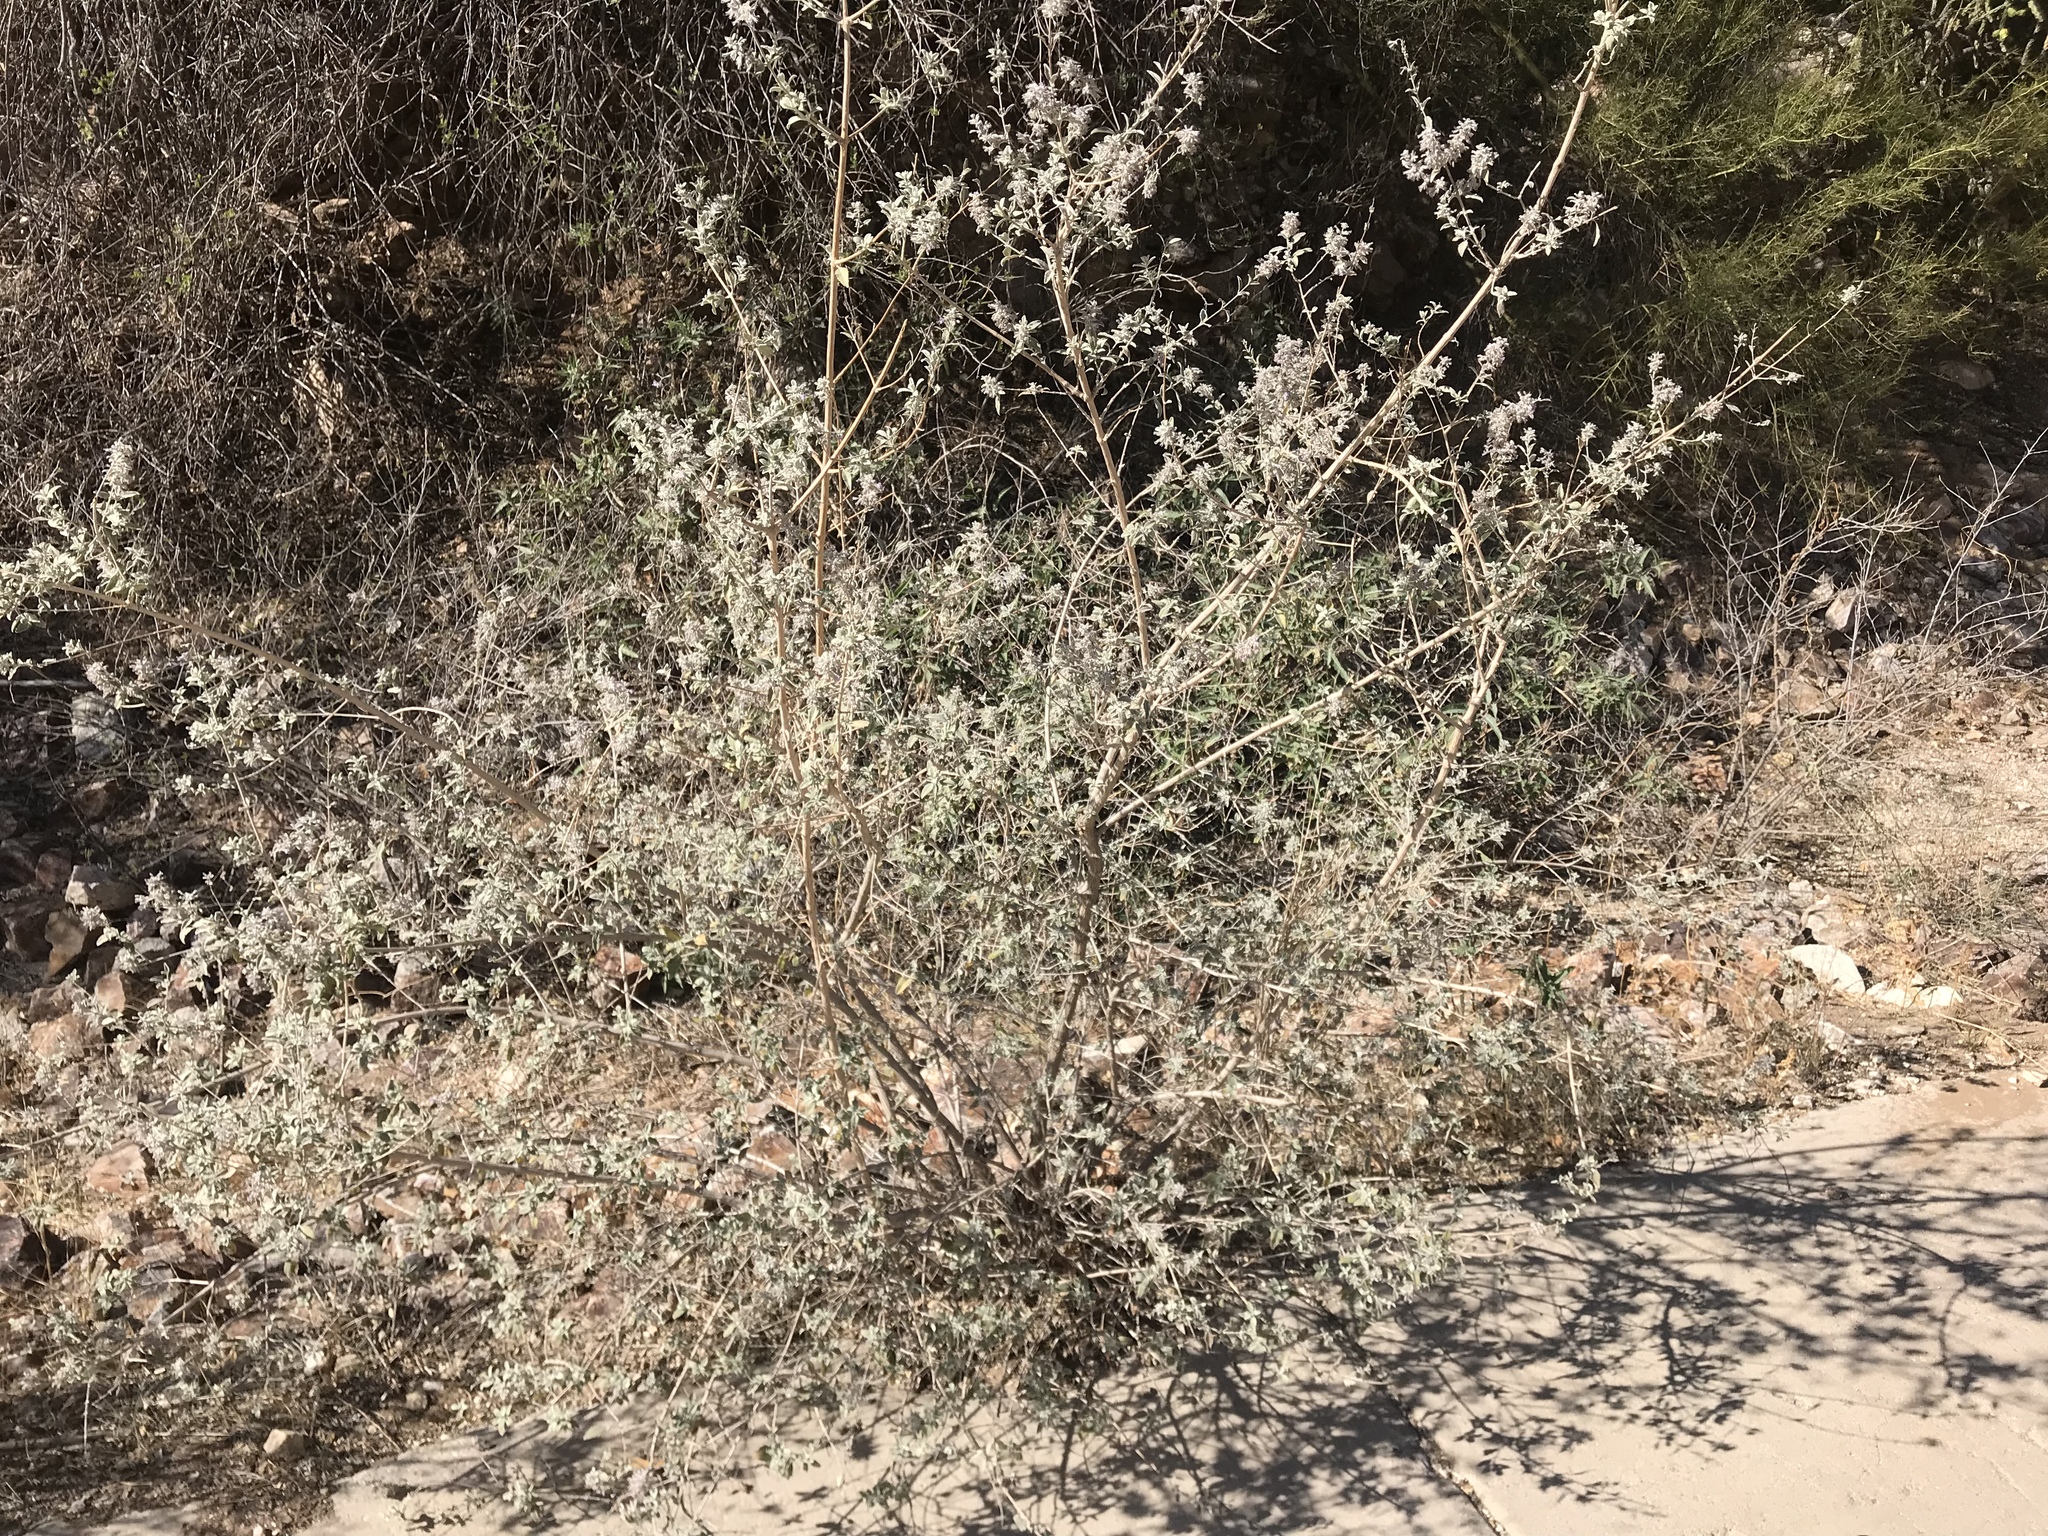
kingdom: Plantae
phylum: Tracheophyta
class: Magnoliopsida
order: Lamiales
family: Lamiaceae
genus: Condea
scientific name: Condea emoryi
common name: Chia
